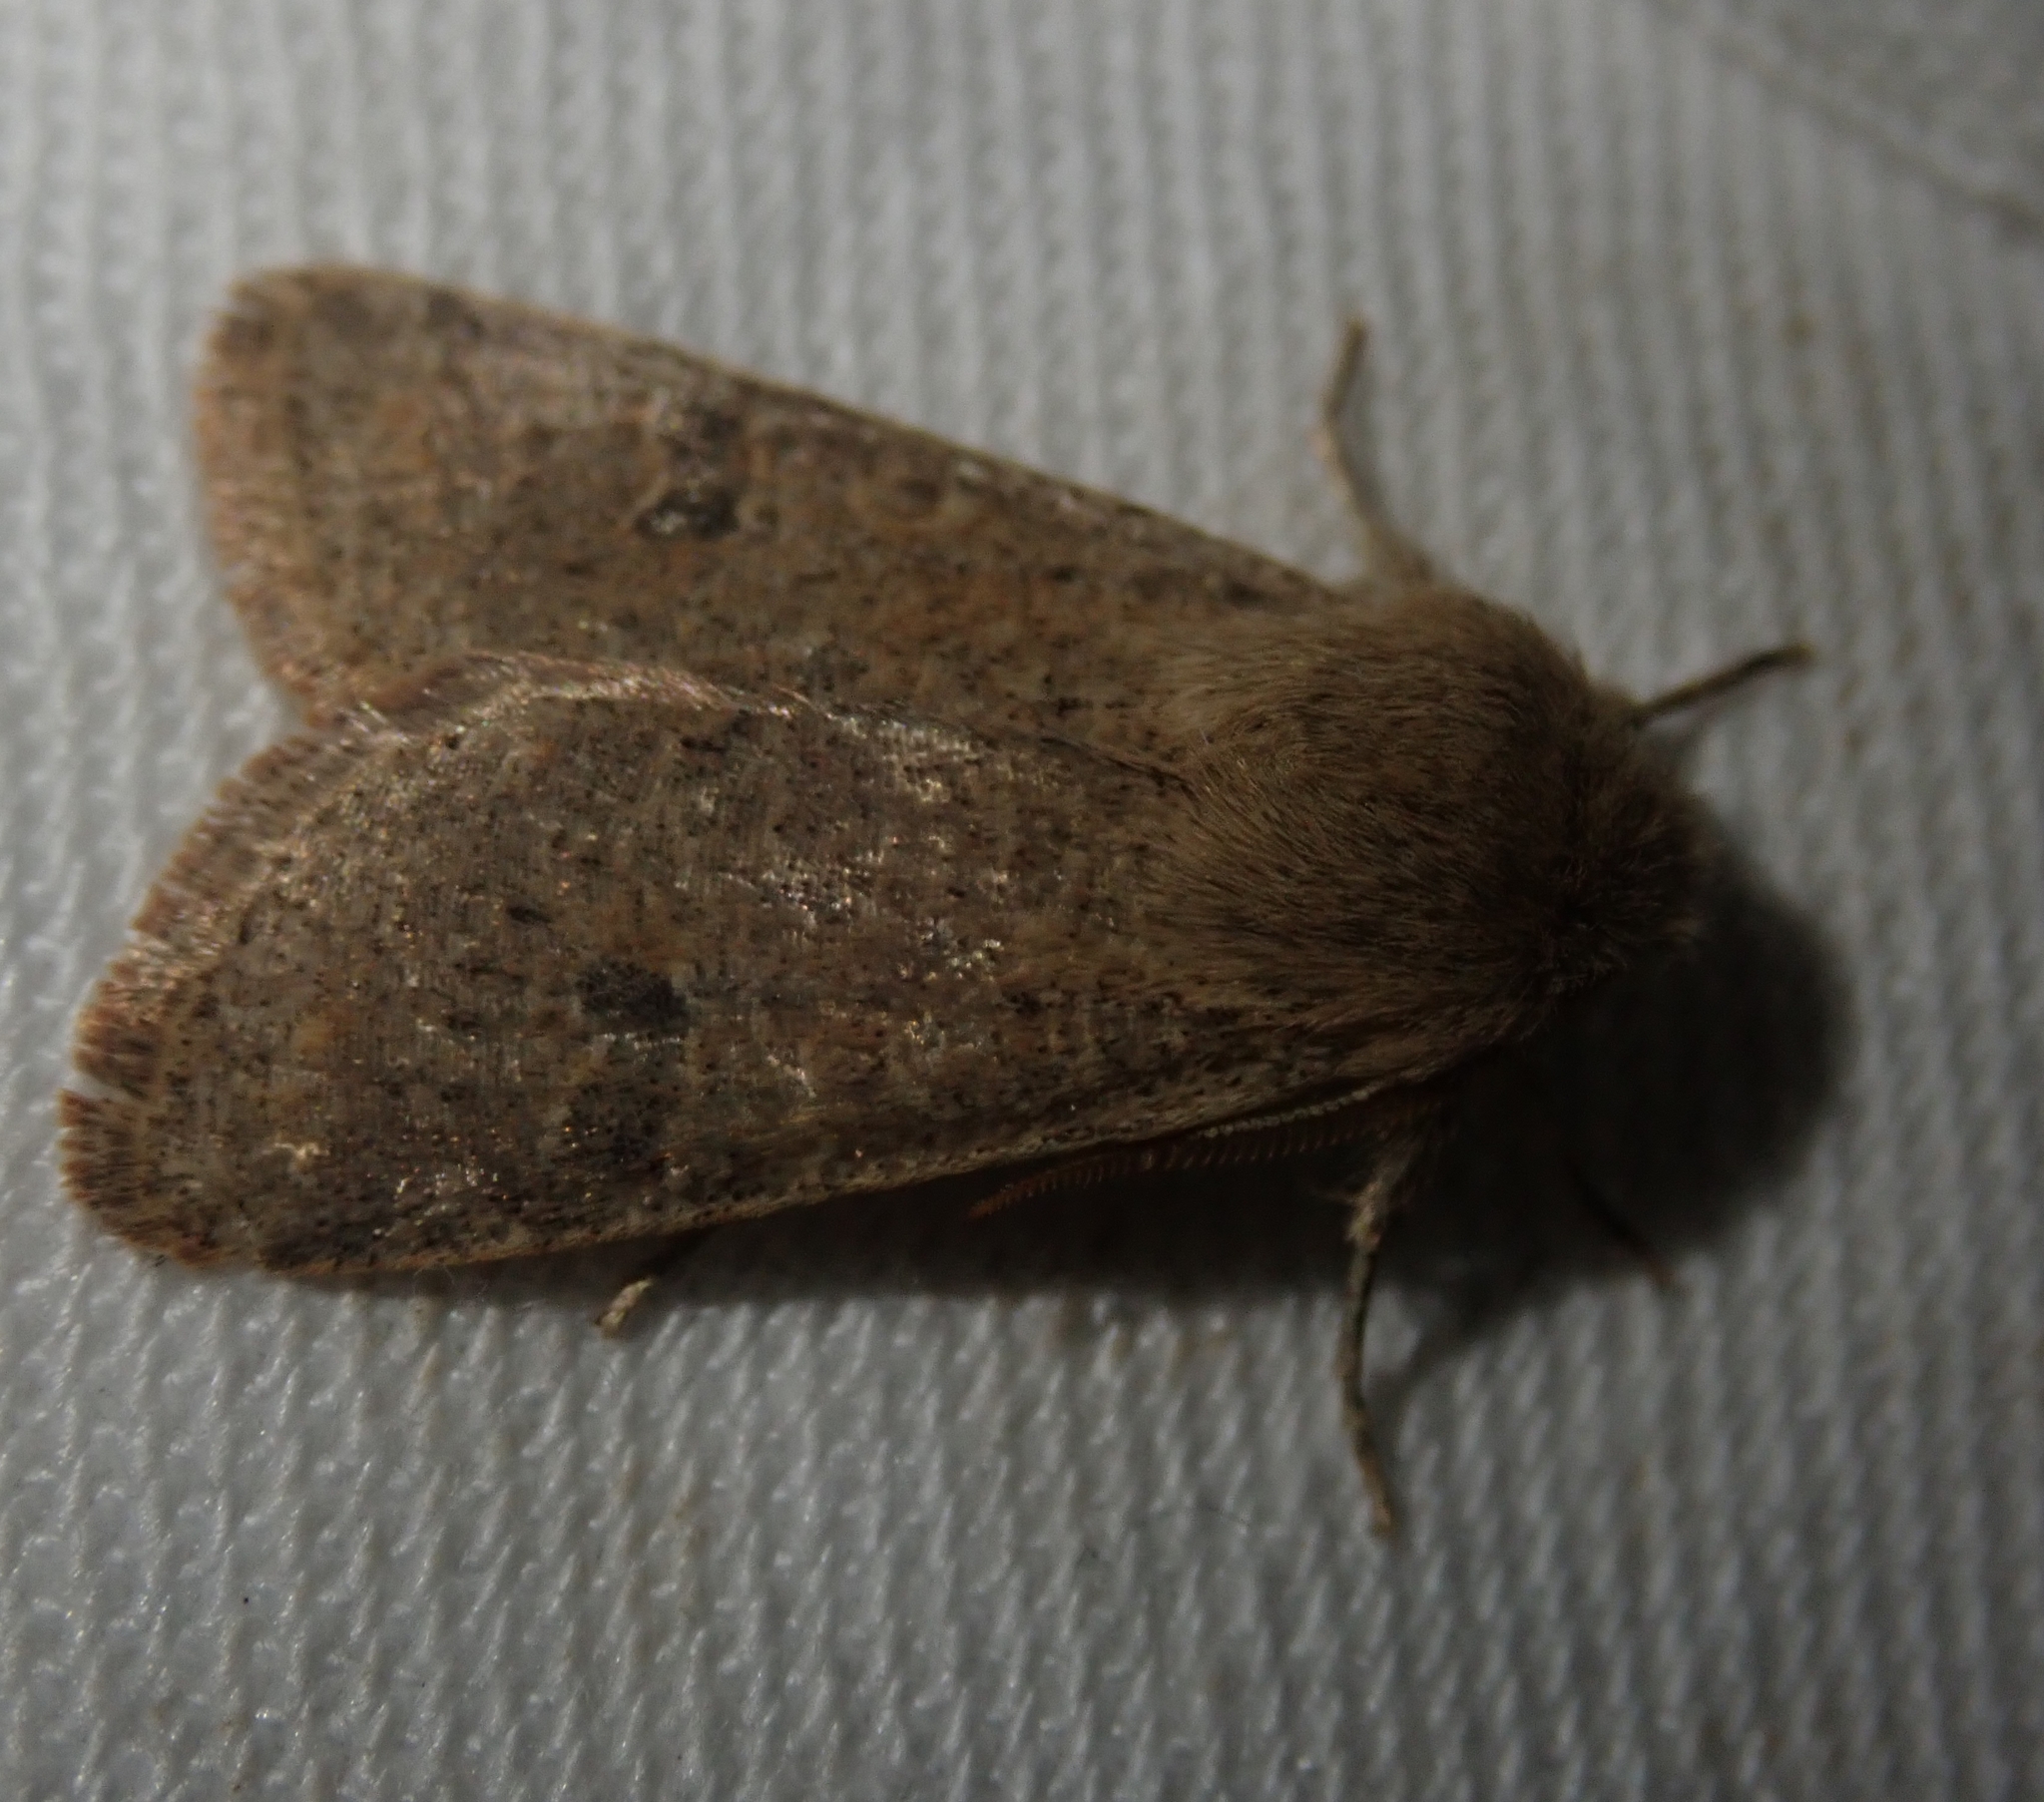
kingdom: Animalia
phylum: Arthropoda
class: Insecta
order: Lepidoptera
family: Noctuidae
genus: Orthosia
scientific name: Orthosia cruda
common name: Small quaker
